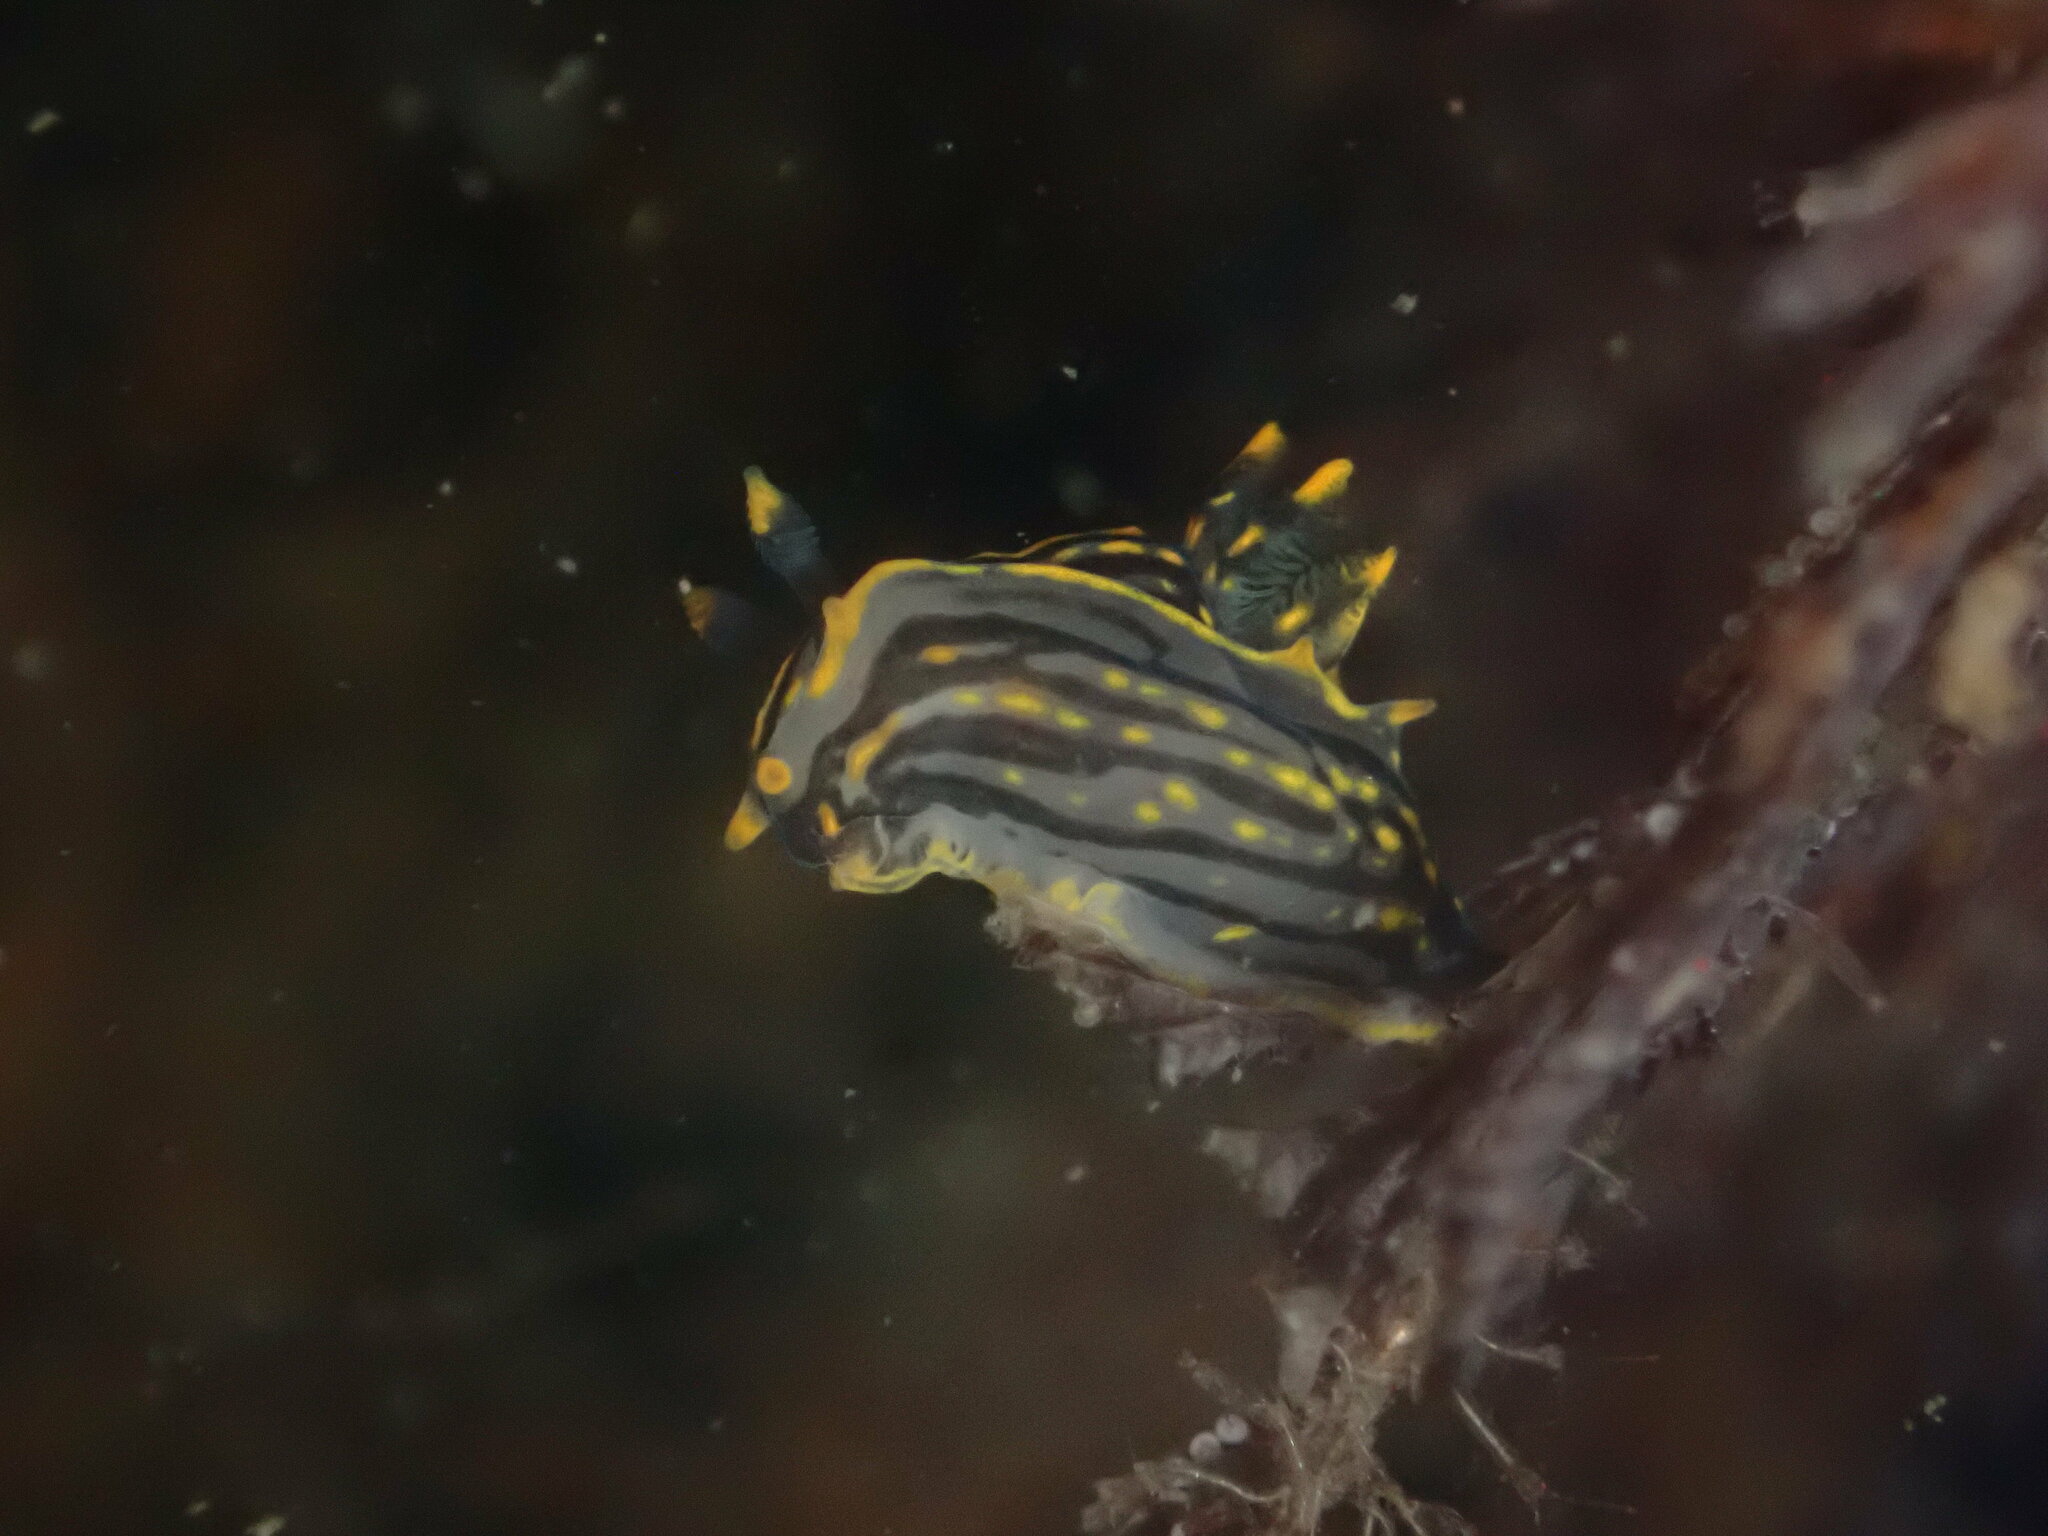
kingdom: Animalia
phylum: Mollusca
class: Gastropoda
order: Nudibranchia
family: Polyceridae
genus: Polycera
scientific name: Polycera atra
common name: Orange-spike polycera
